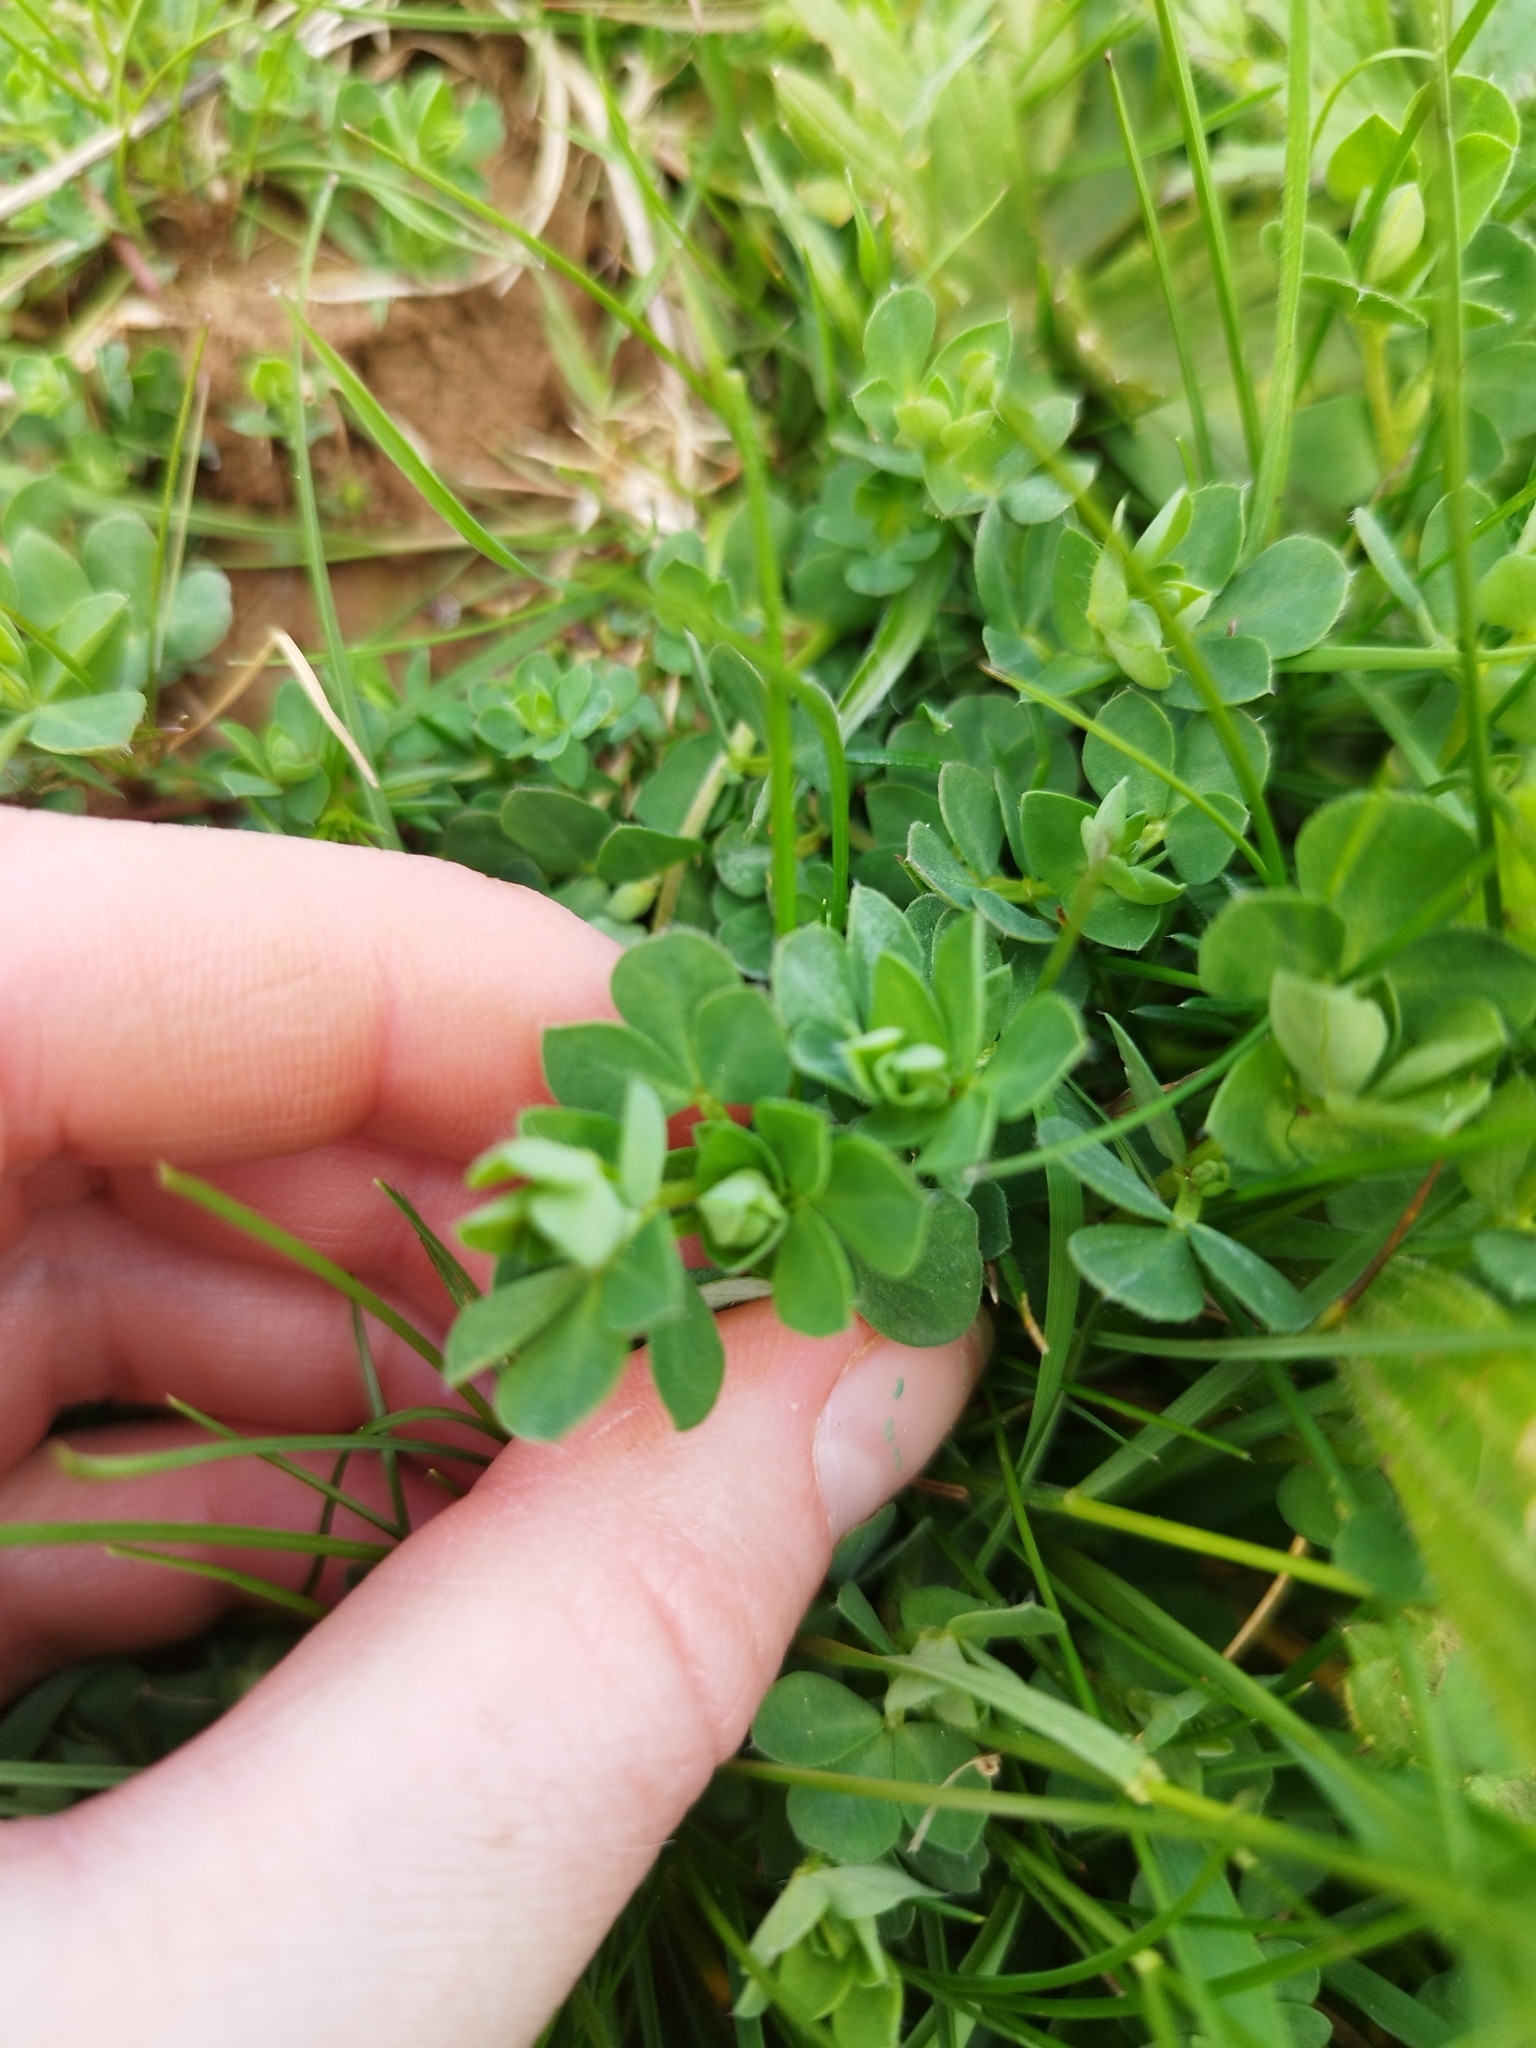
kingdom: Plantae
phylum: Tracheophyta
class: Magnoliopsida
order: Fabales
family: Fabaceae
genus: Lotus
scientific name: Lotus corniculatus
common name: Common bird's-foot-trefoil
